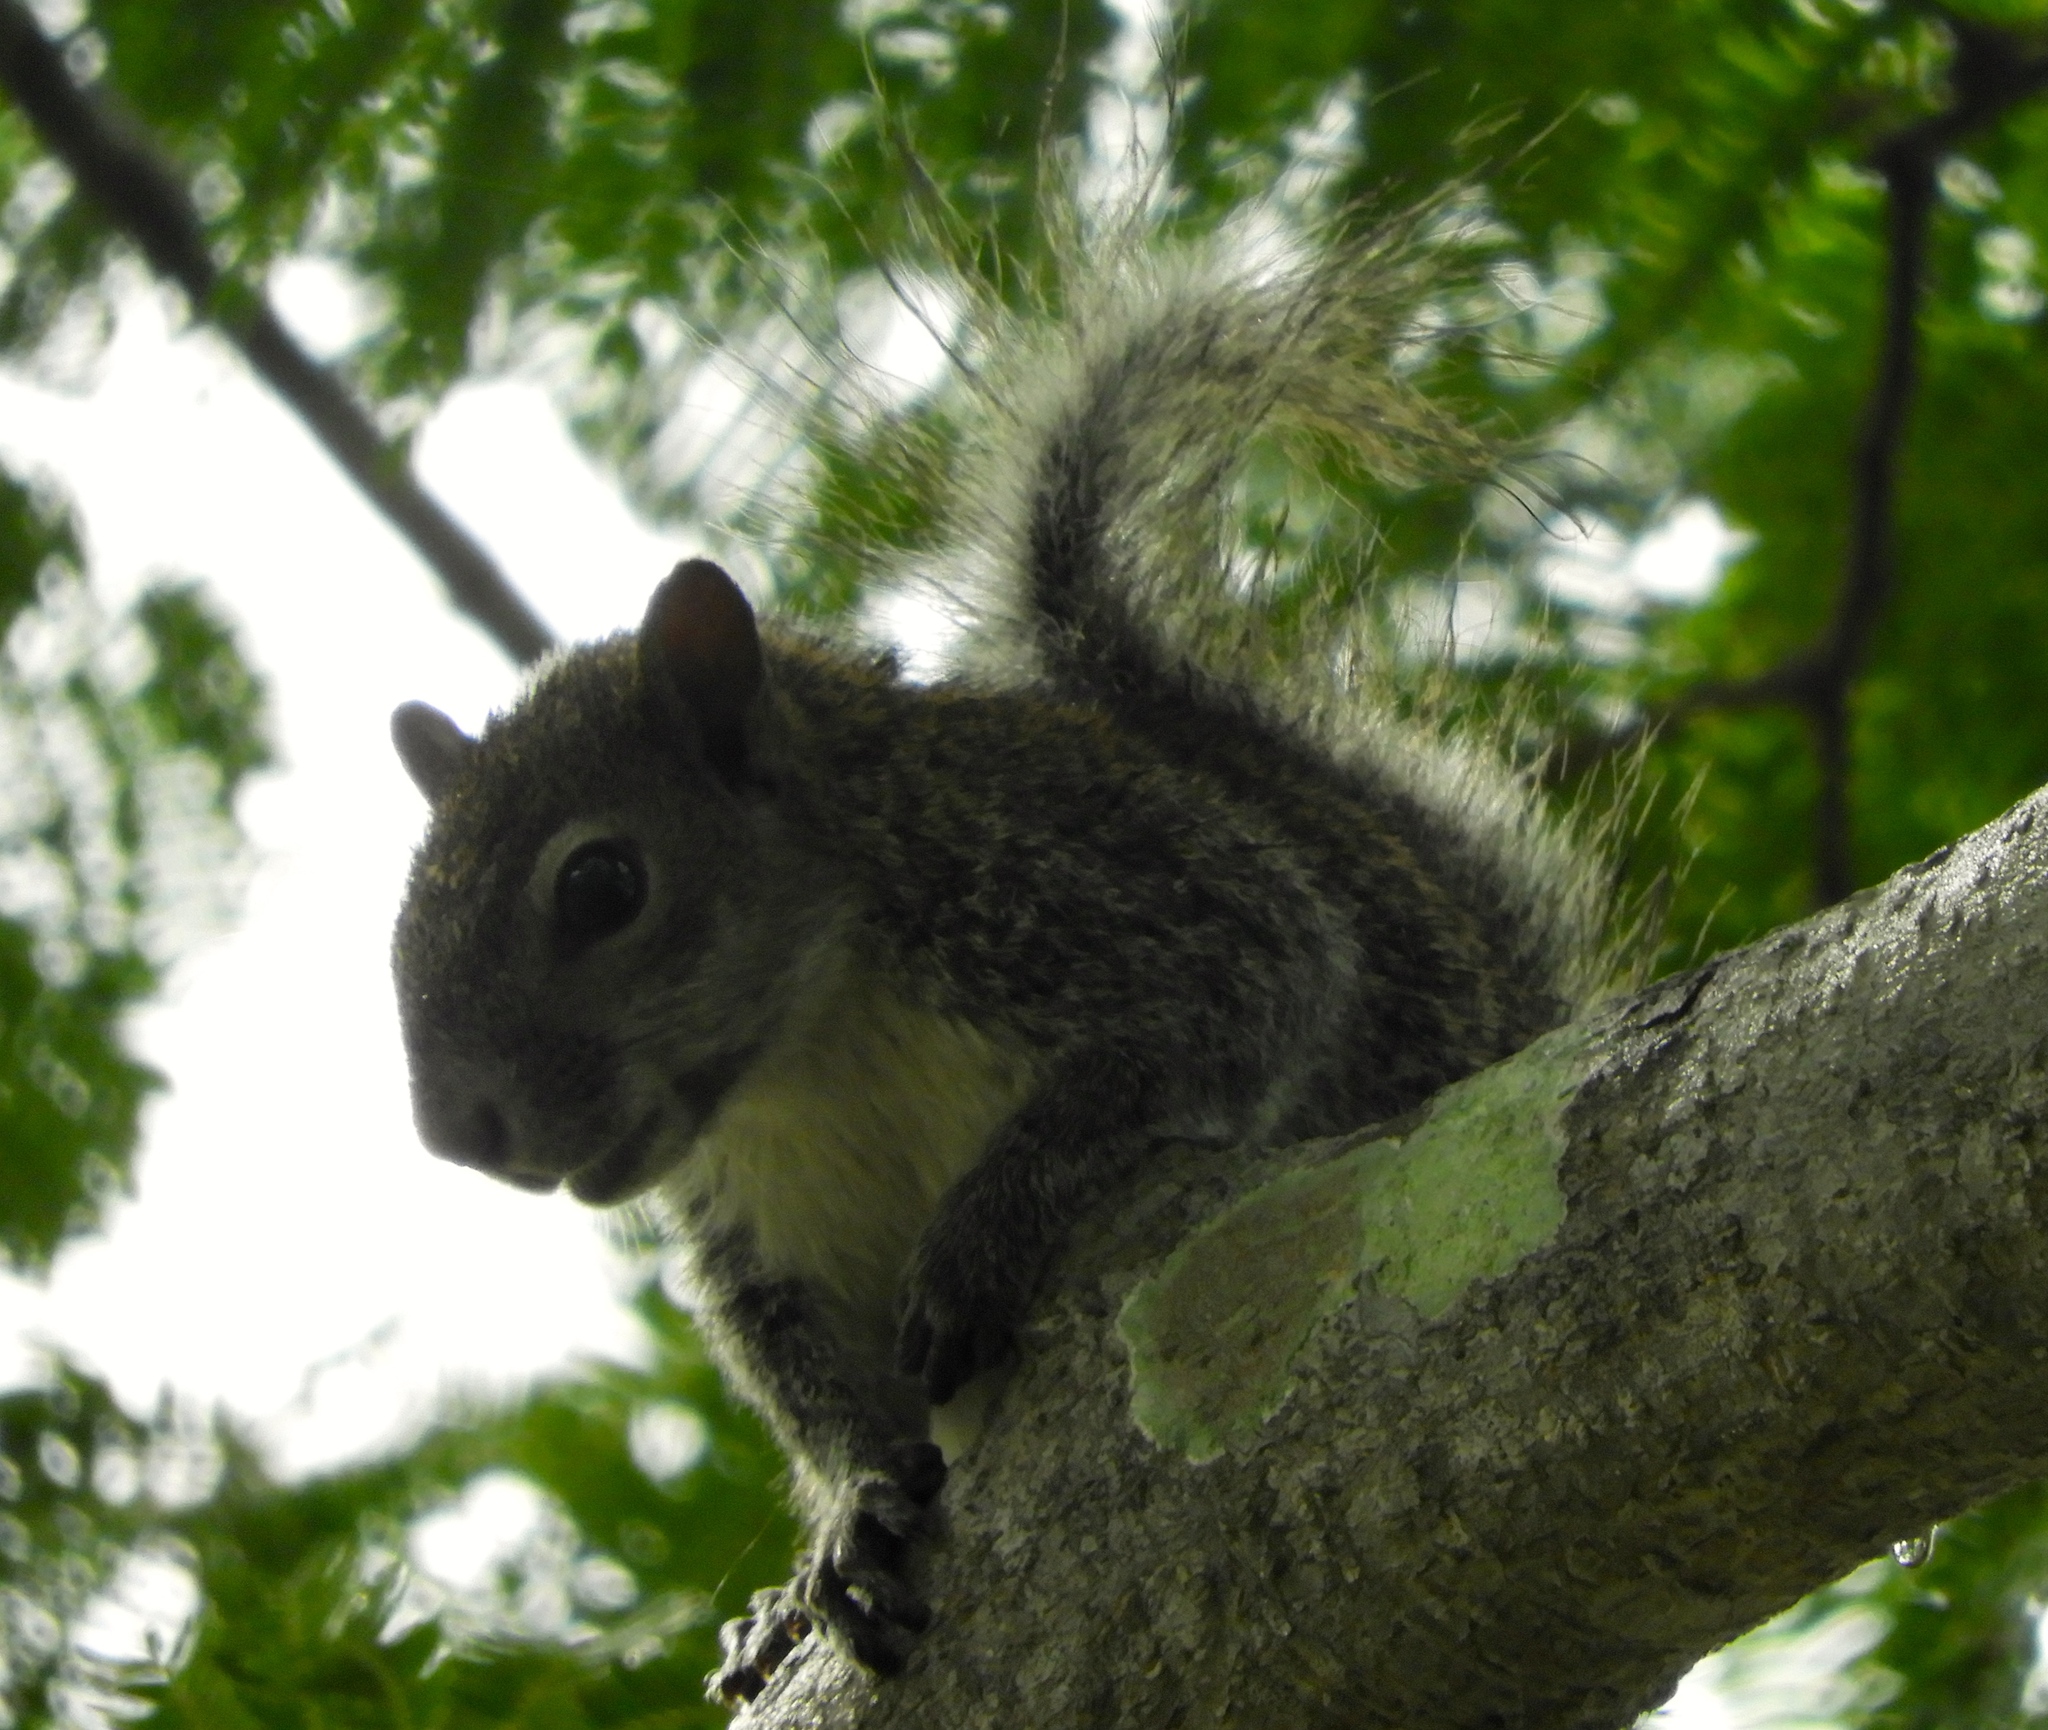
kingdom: Animalia
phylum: Chordata
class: Mammalia
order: Rodentia
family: Sciuridae
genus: Sciurus
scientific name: Sciurus colliaei
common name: Collie's squirrel
